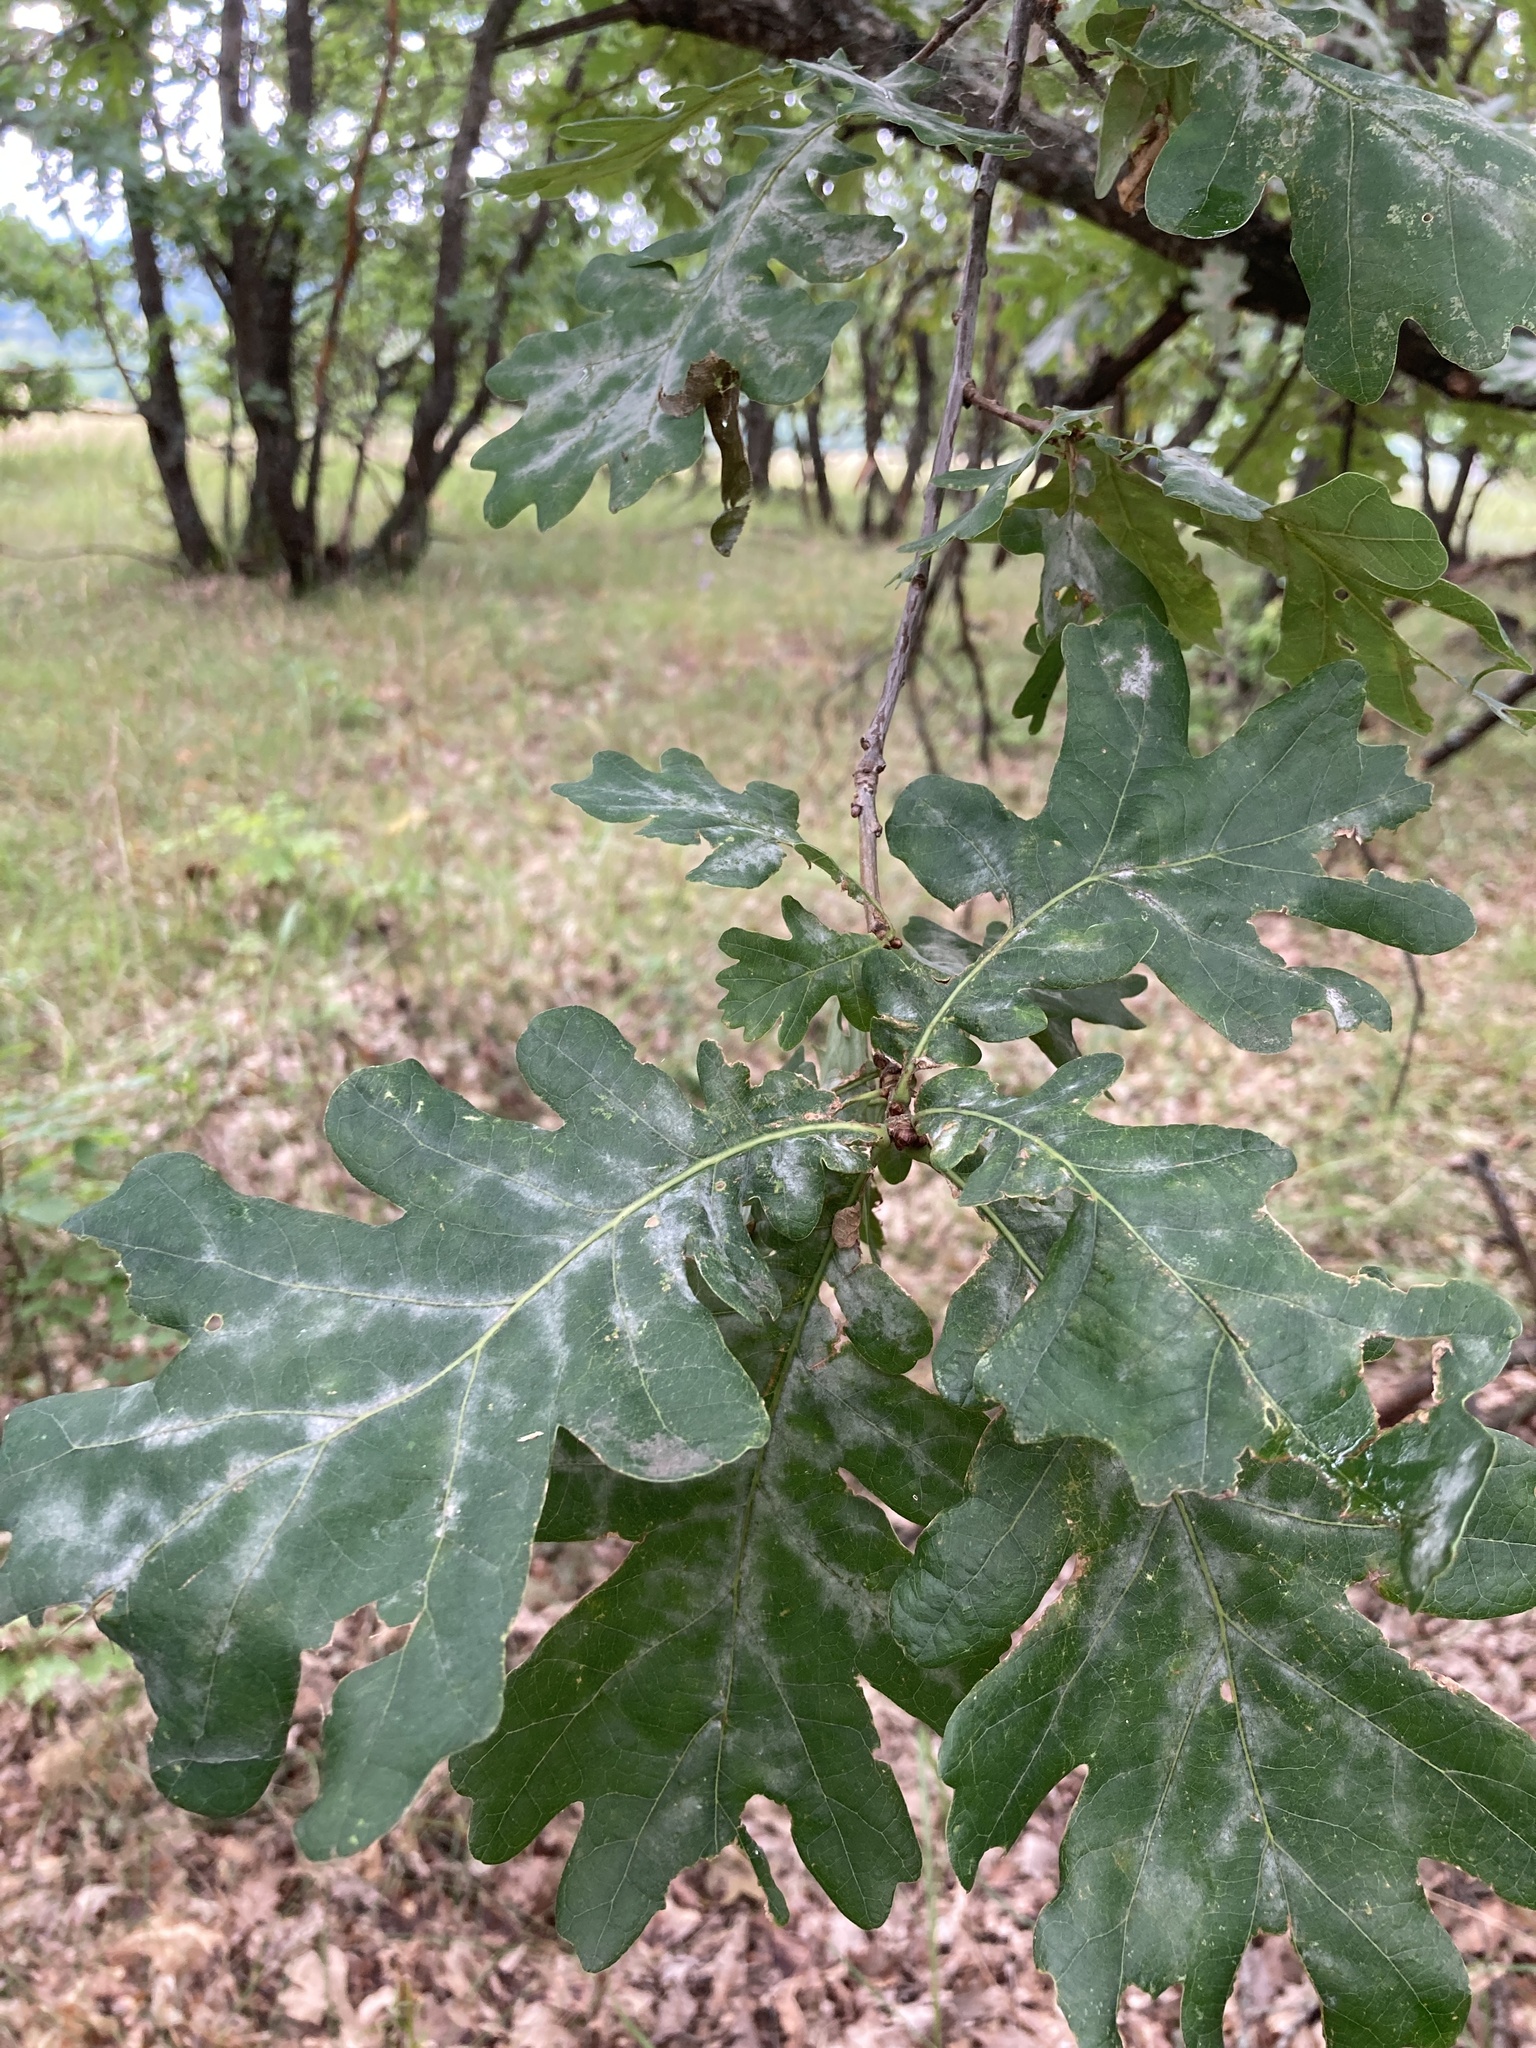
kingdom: Plantae
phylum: Tracheophyta
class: Magnoliopsida
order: Fagales
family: Fagaceae
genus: Quercus
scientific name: Quercus robur
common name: Pedunculate oak
